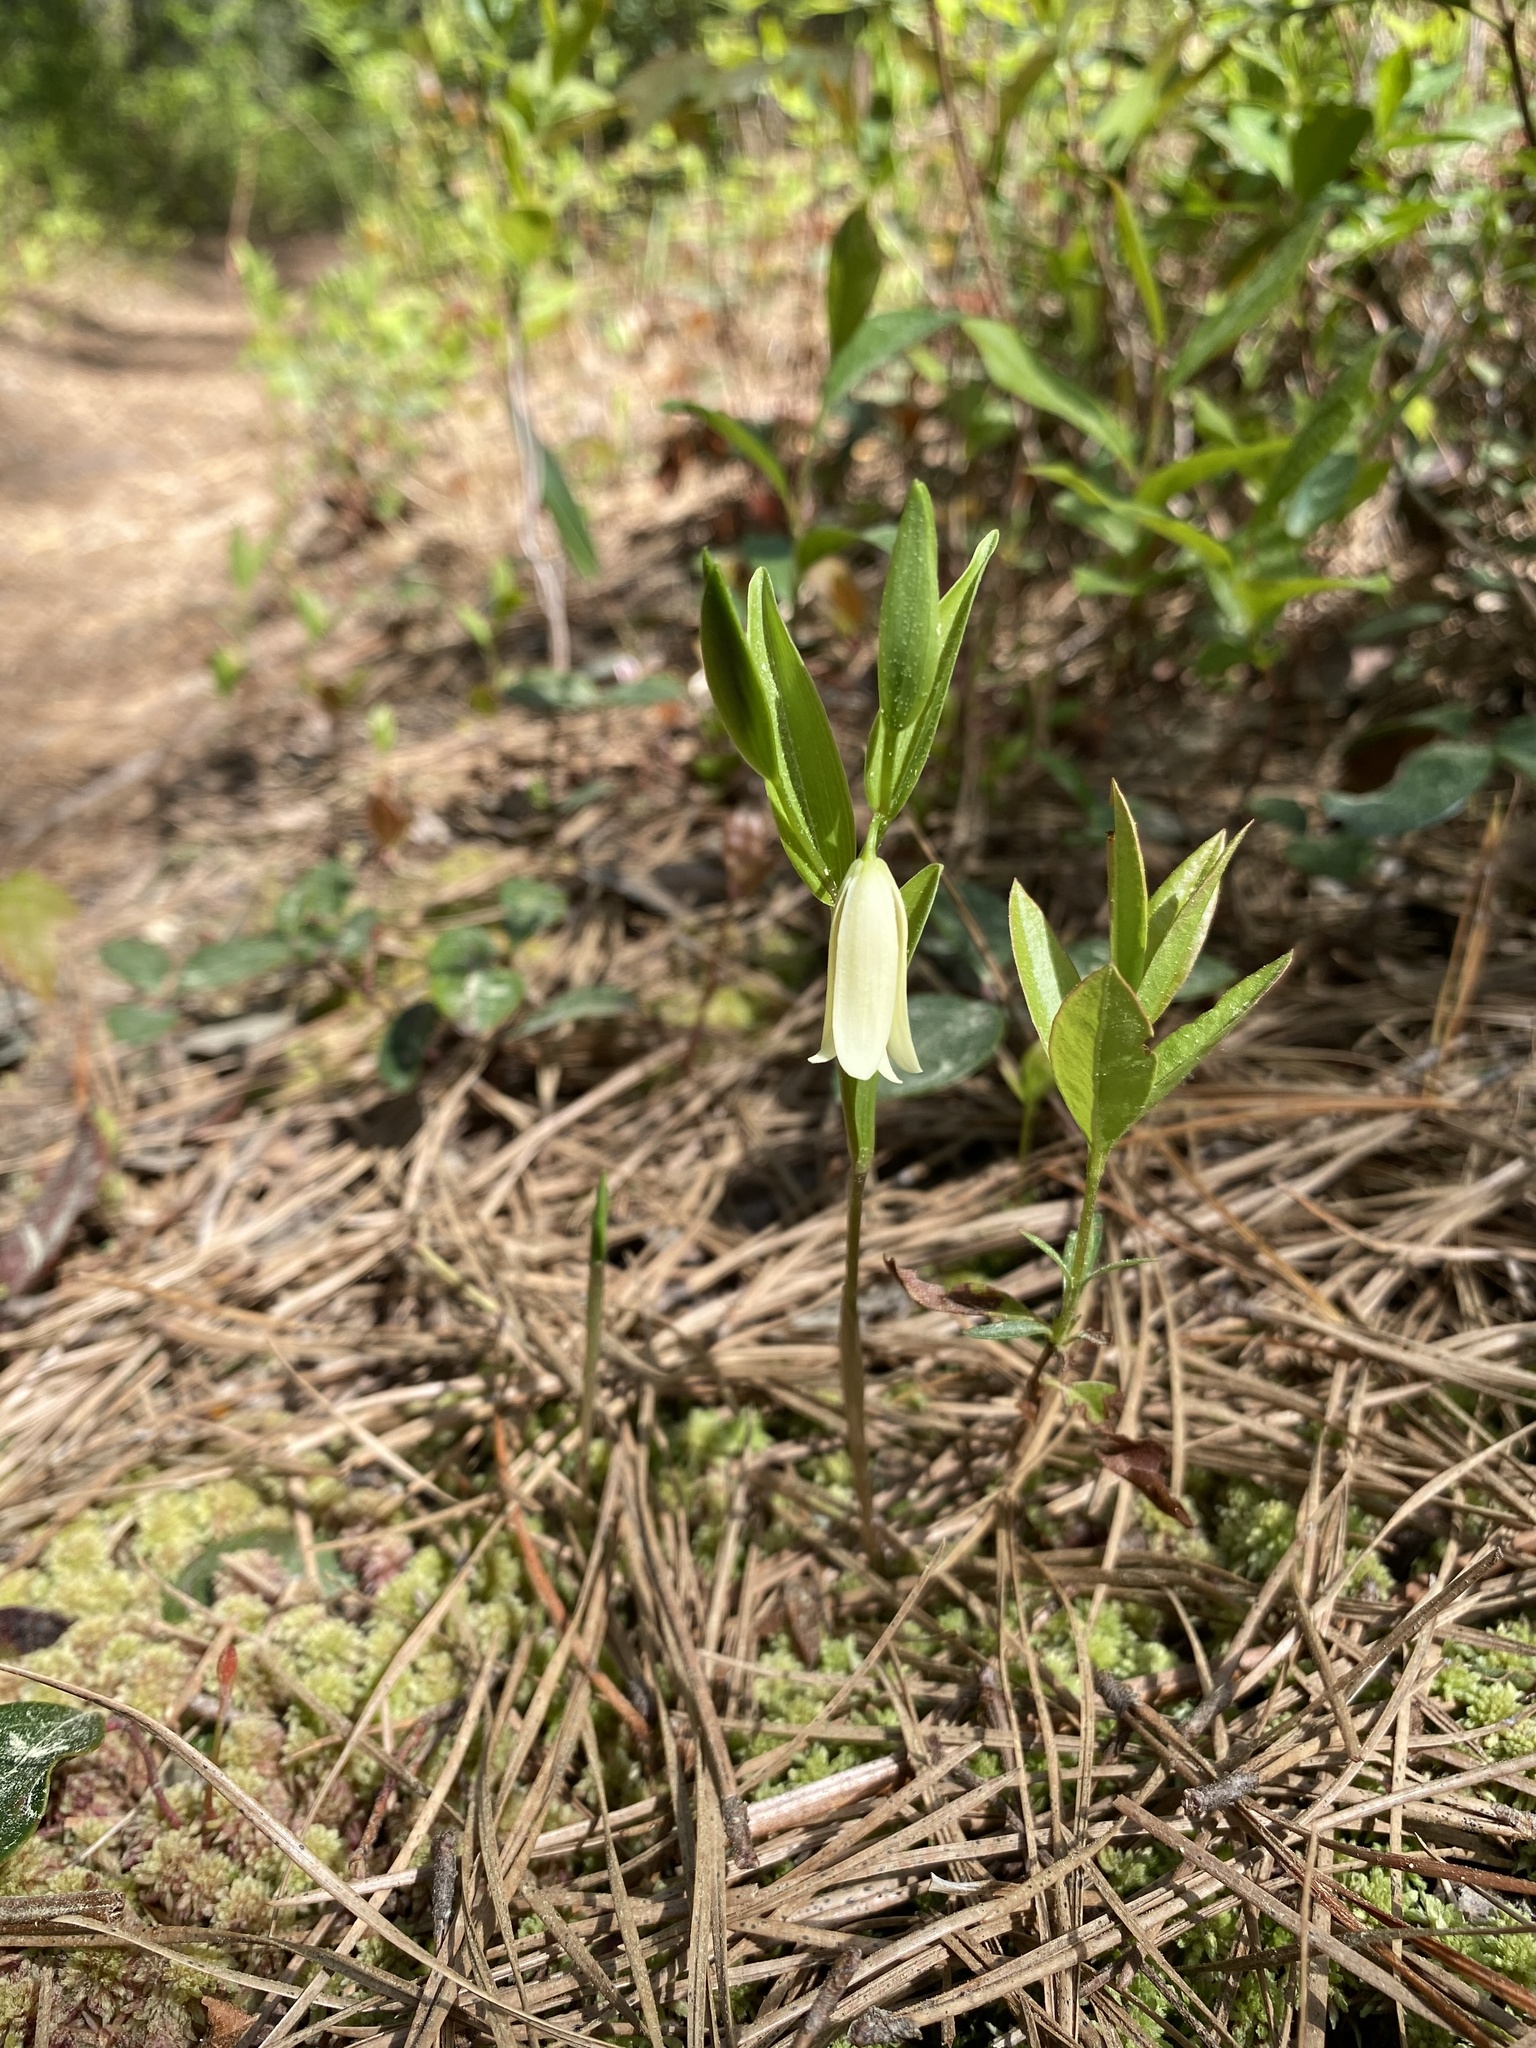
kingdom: Plantae
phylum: Tracheophyta
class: Liliopsida
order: Liliales
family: Colchicaceae
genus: Uvularia
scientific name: Uvularia puberula
